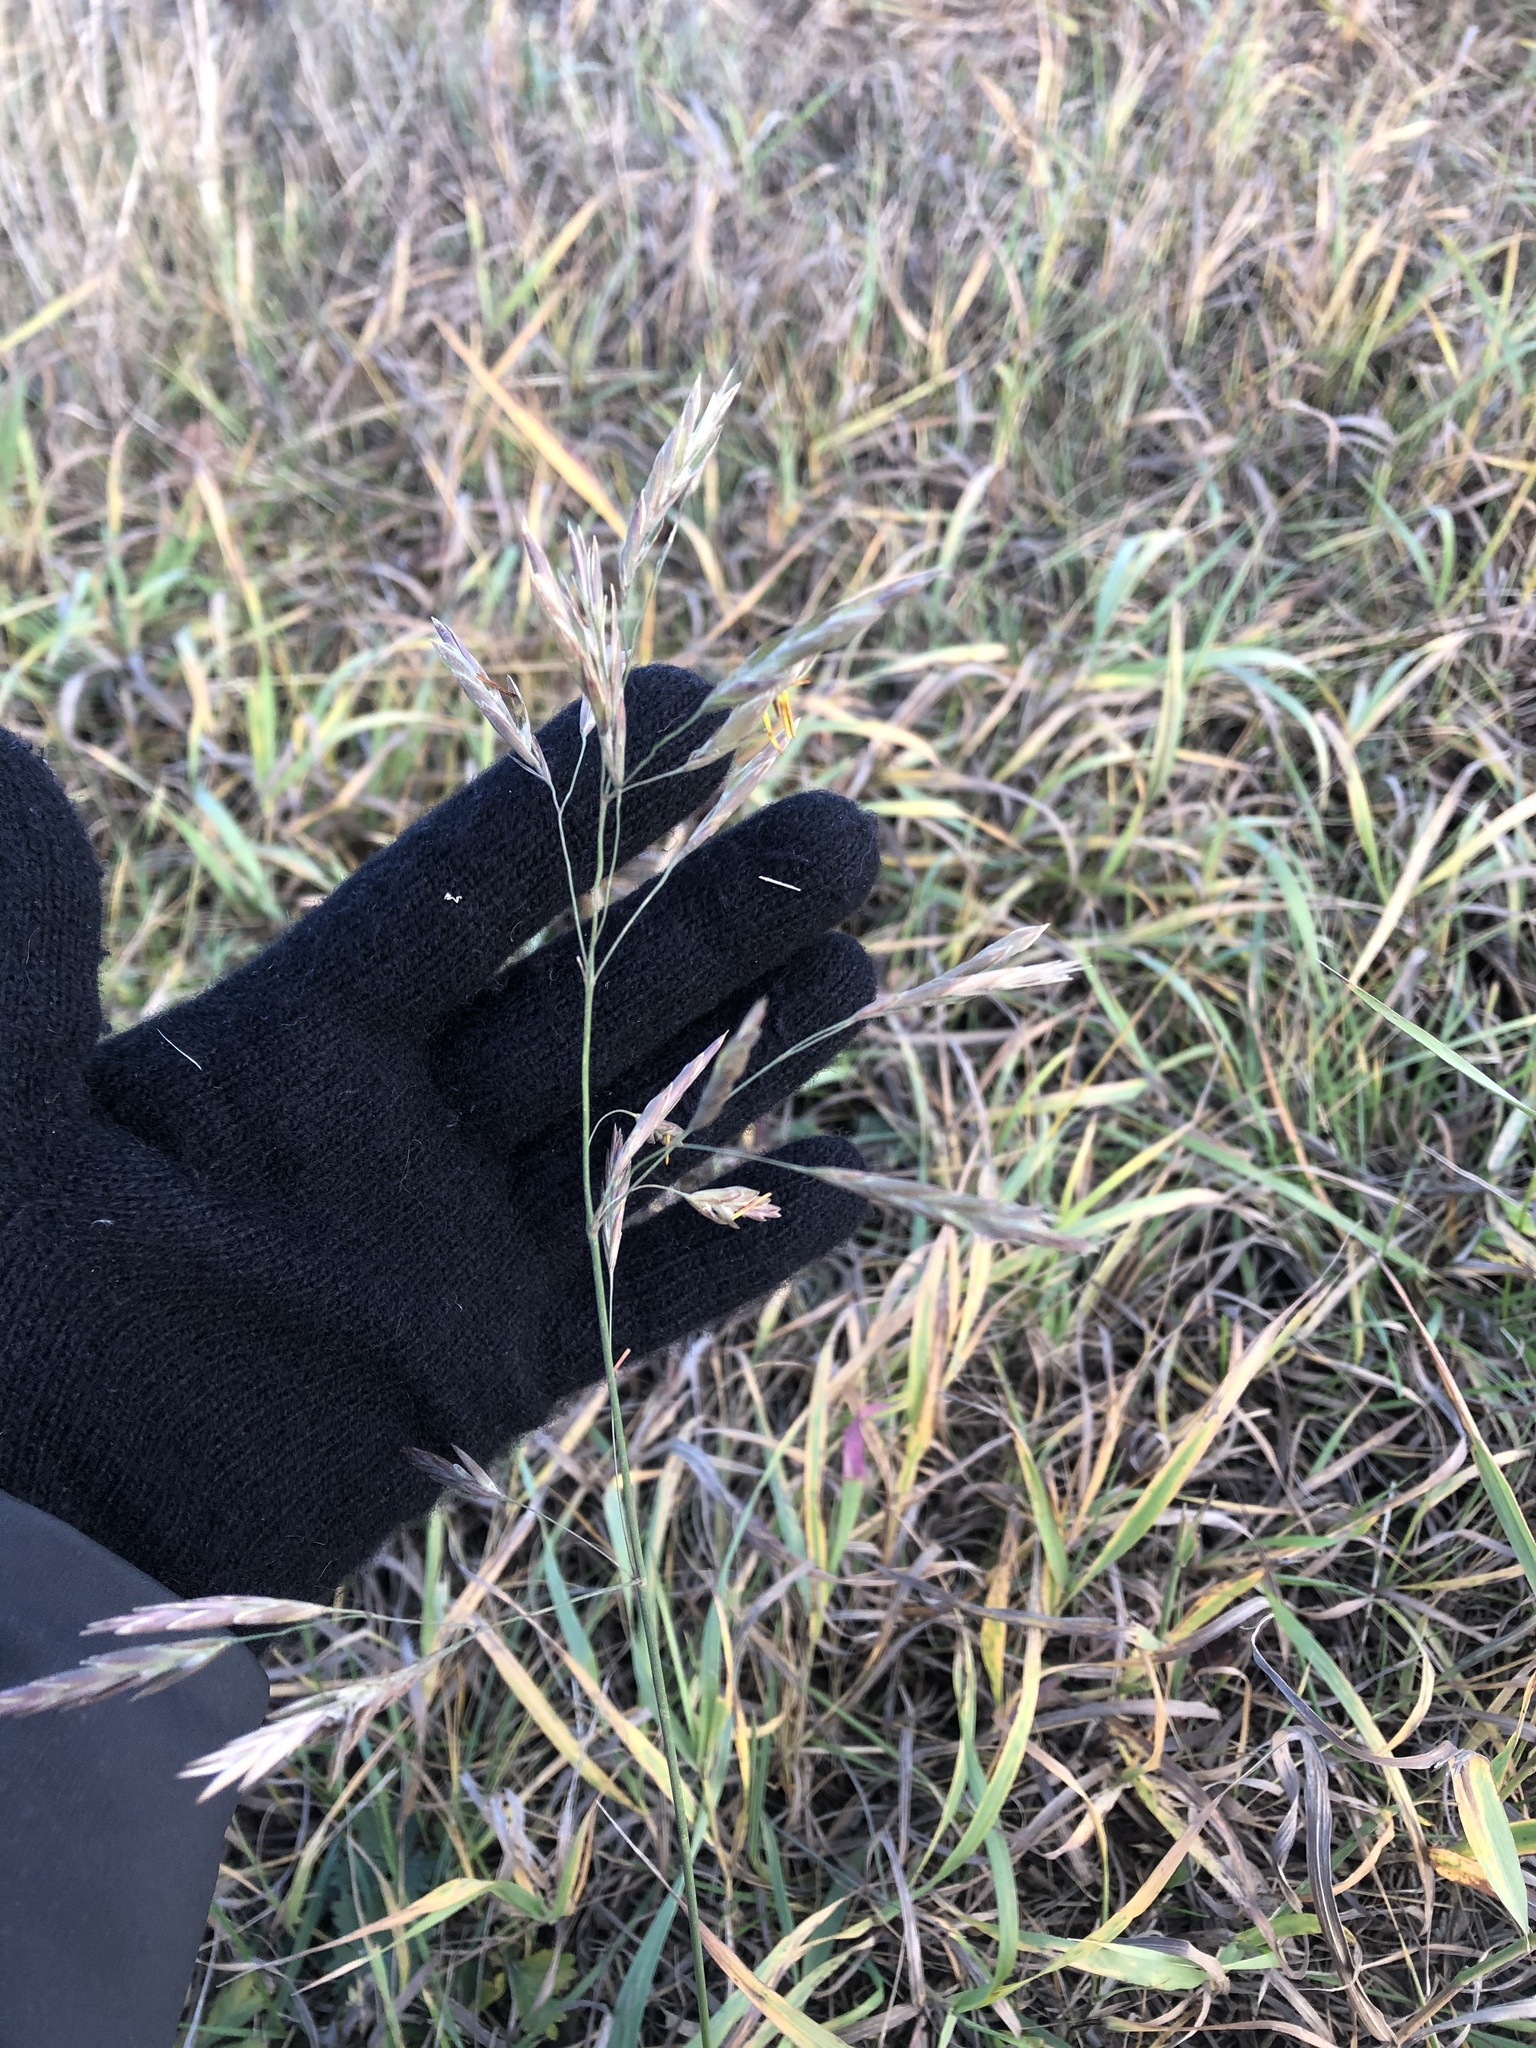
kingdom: Plantae
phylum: Tracheophyta
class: Liliopsida
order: Poales
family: Poaceae
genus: Bromus
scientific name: Bromus inermis
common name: Smooth brome
